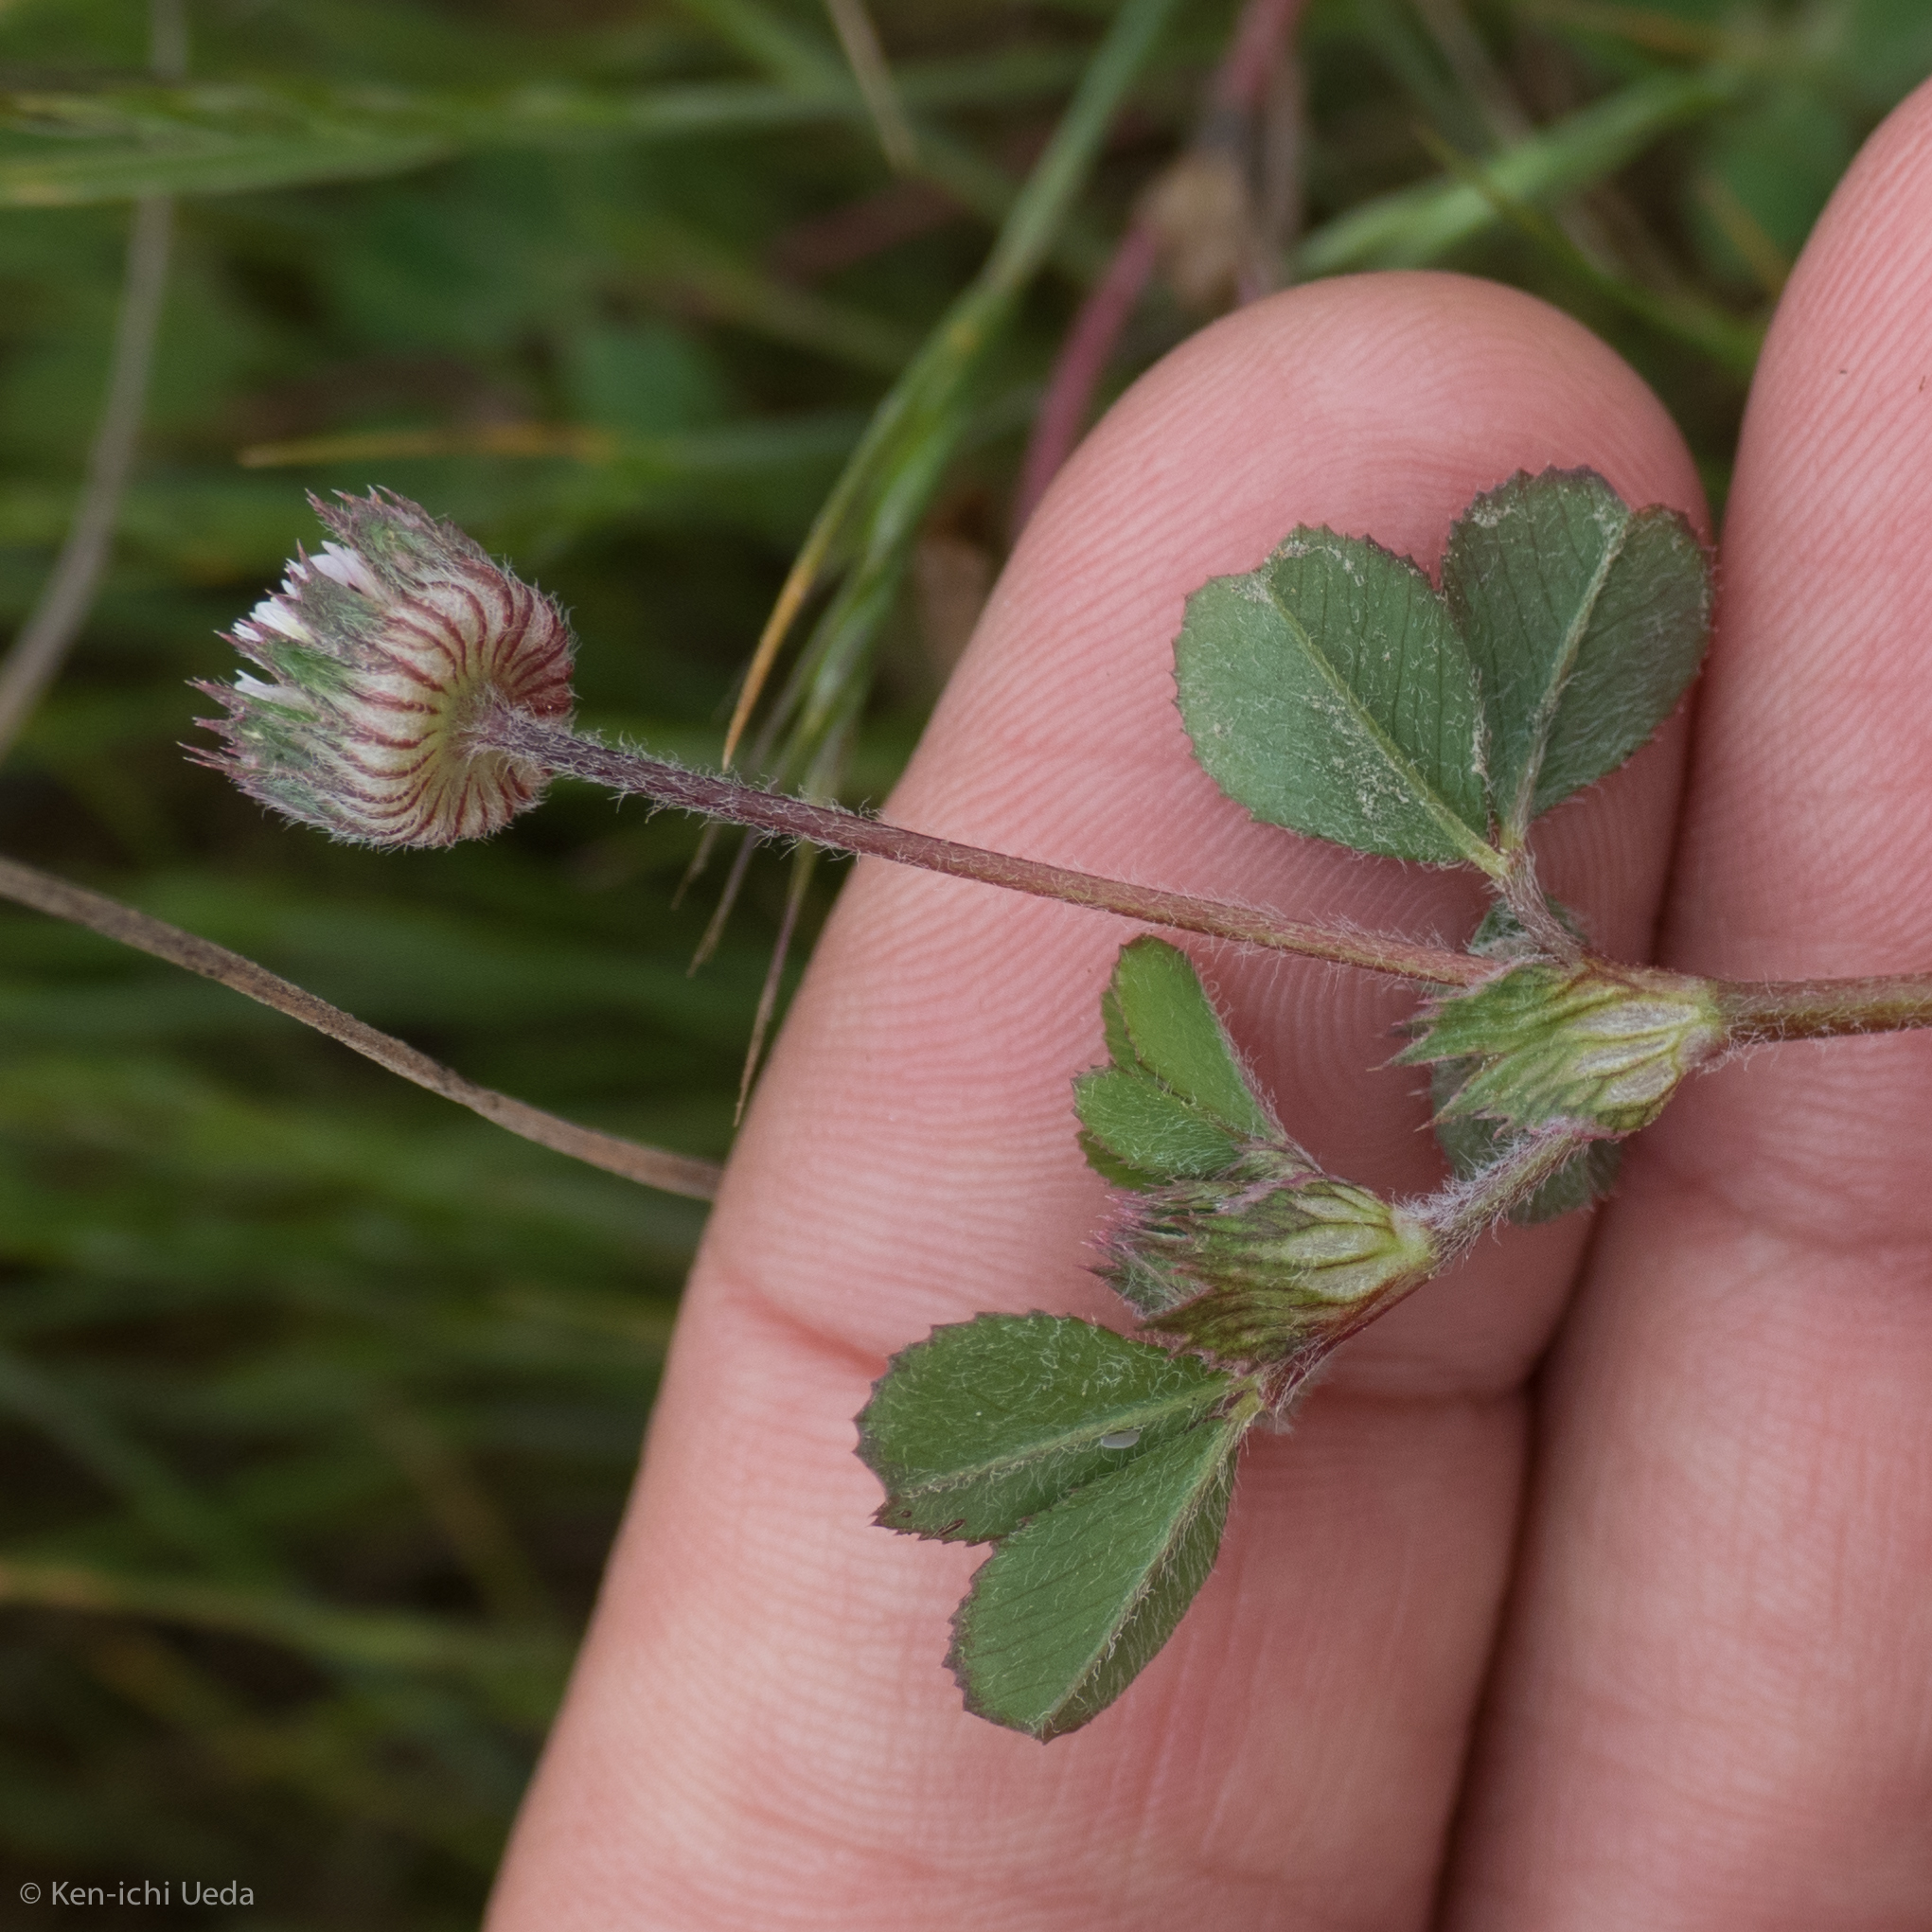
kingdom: Plantae
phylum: Tracheophyta
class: Magnoliopsida
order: Fabales
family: Fabaceae
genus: Trifolium
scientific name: Trifolium microdon
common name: Thimble clover
